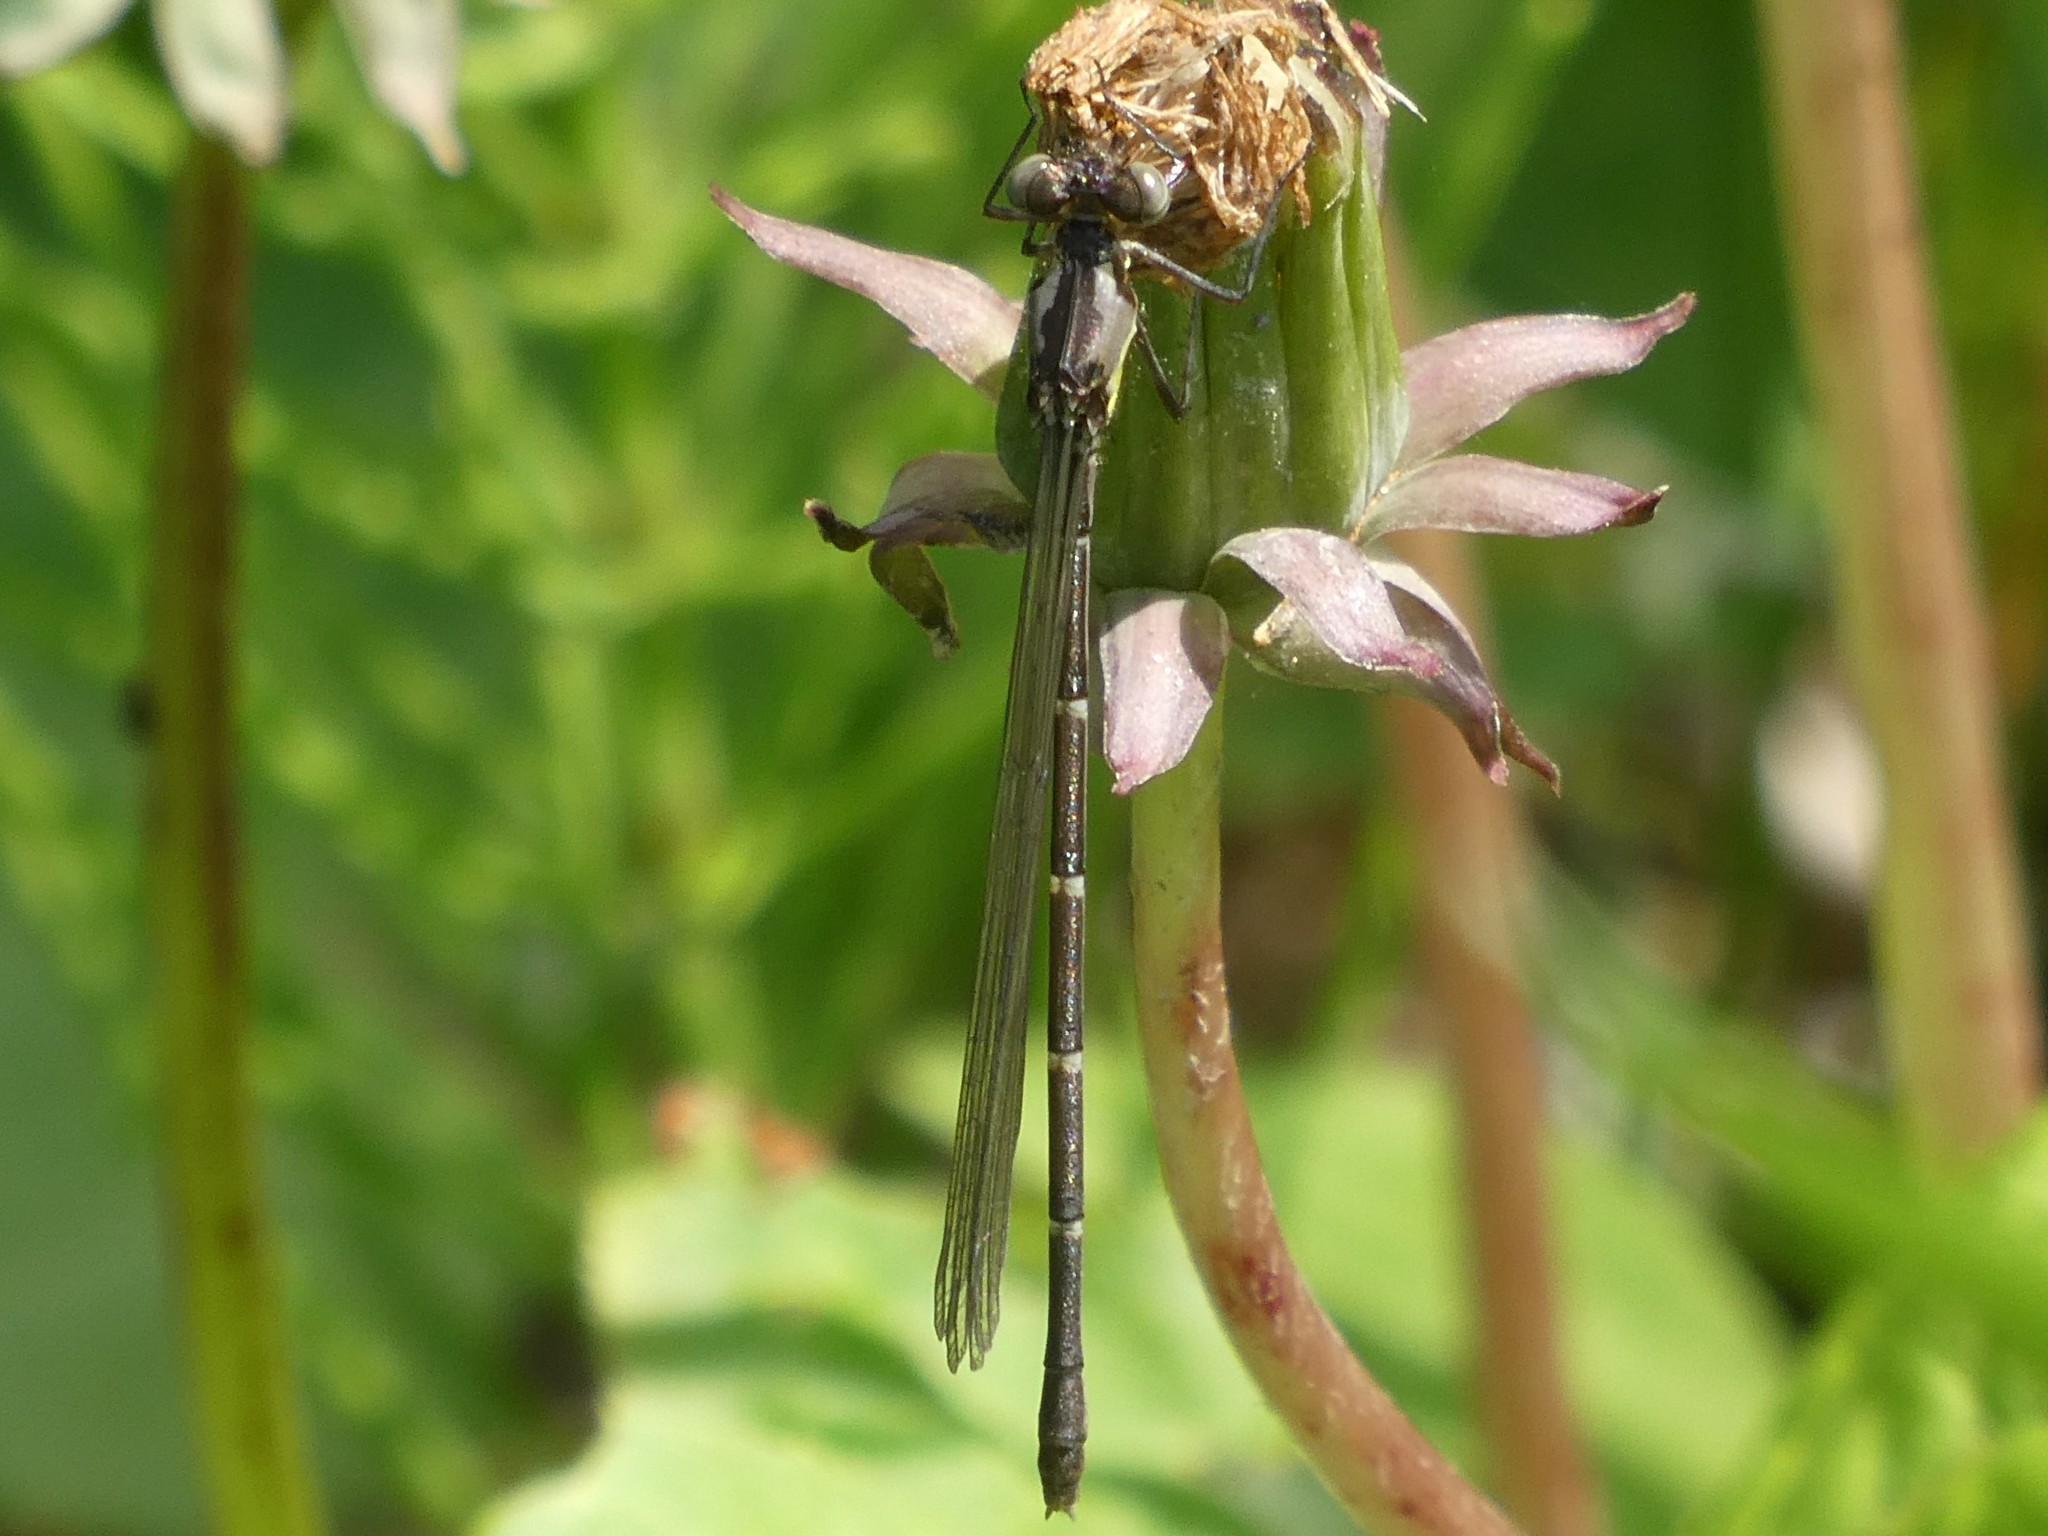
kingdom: Animalia
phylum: Arthropoda
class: Insecta
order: Odonata
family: Coenagrionidae
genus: Chromagrion
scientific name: Chromagrion conditum
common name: Aurora damsel
